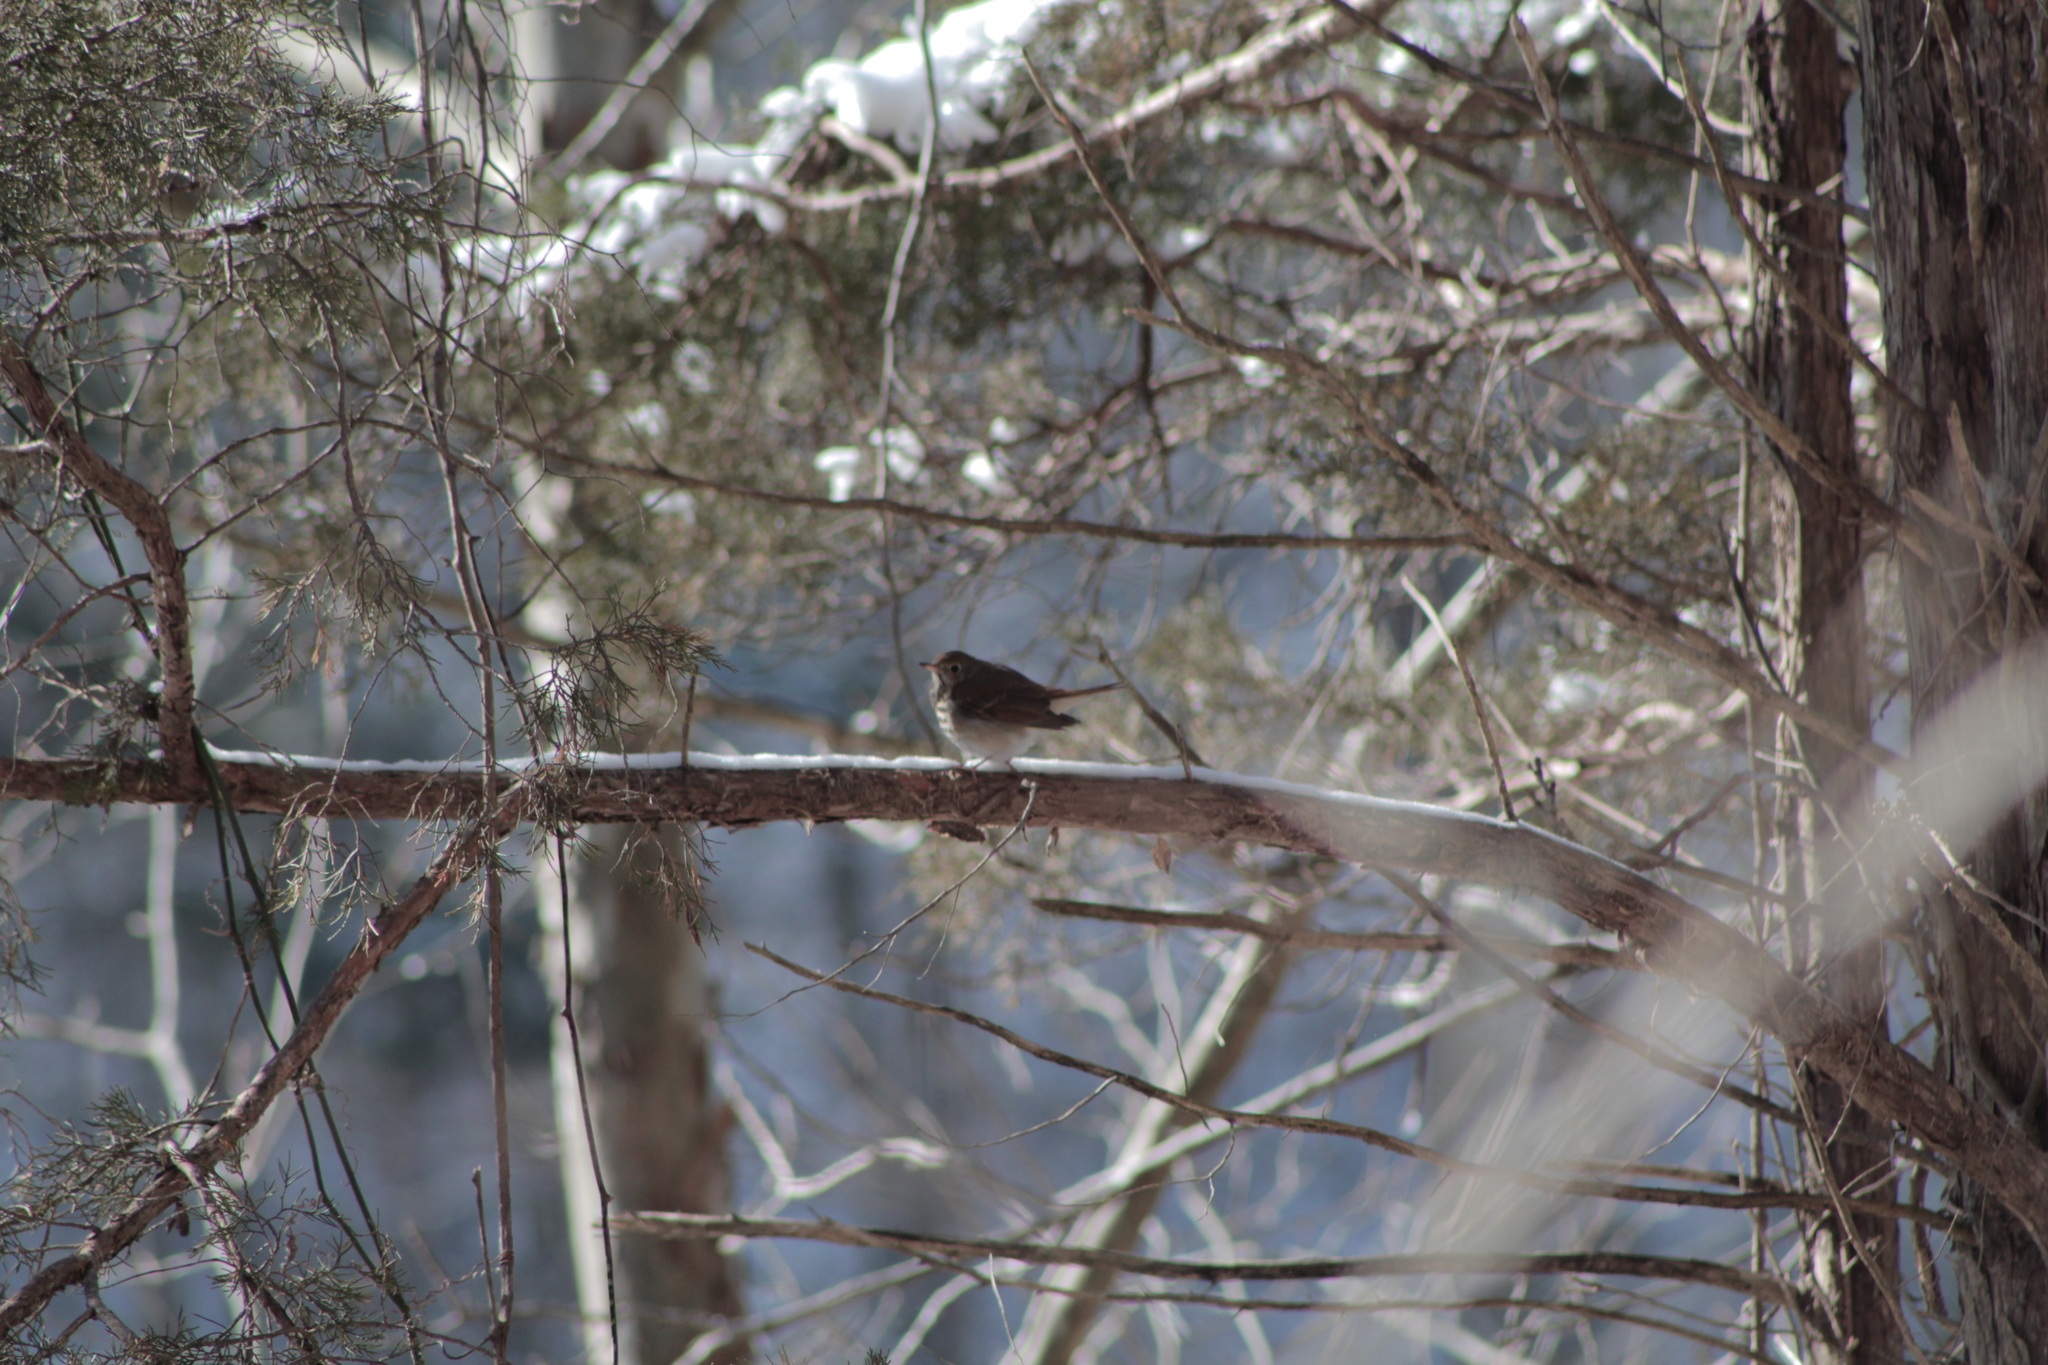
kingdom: Animalia
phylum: Chordata
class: Aves
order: Passeriformes
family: Turdidae
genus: Catharus
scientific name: Catharus guttatus
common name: Hermit thrush
